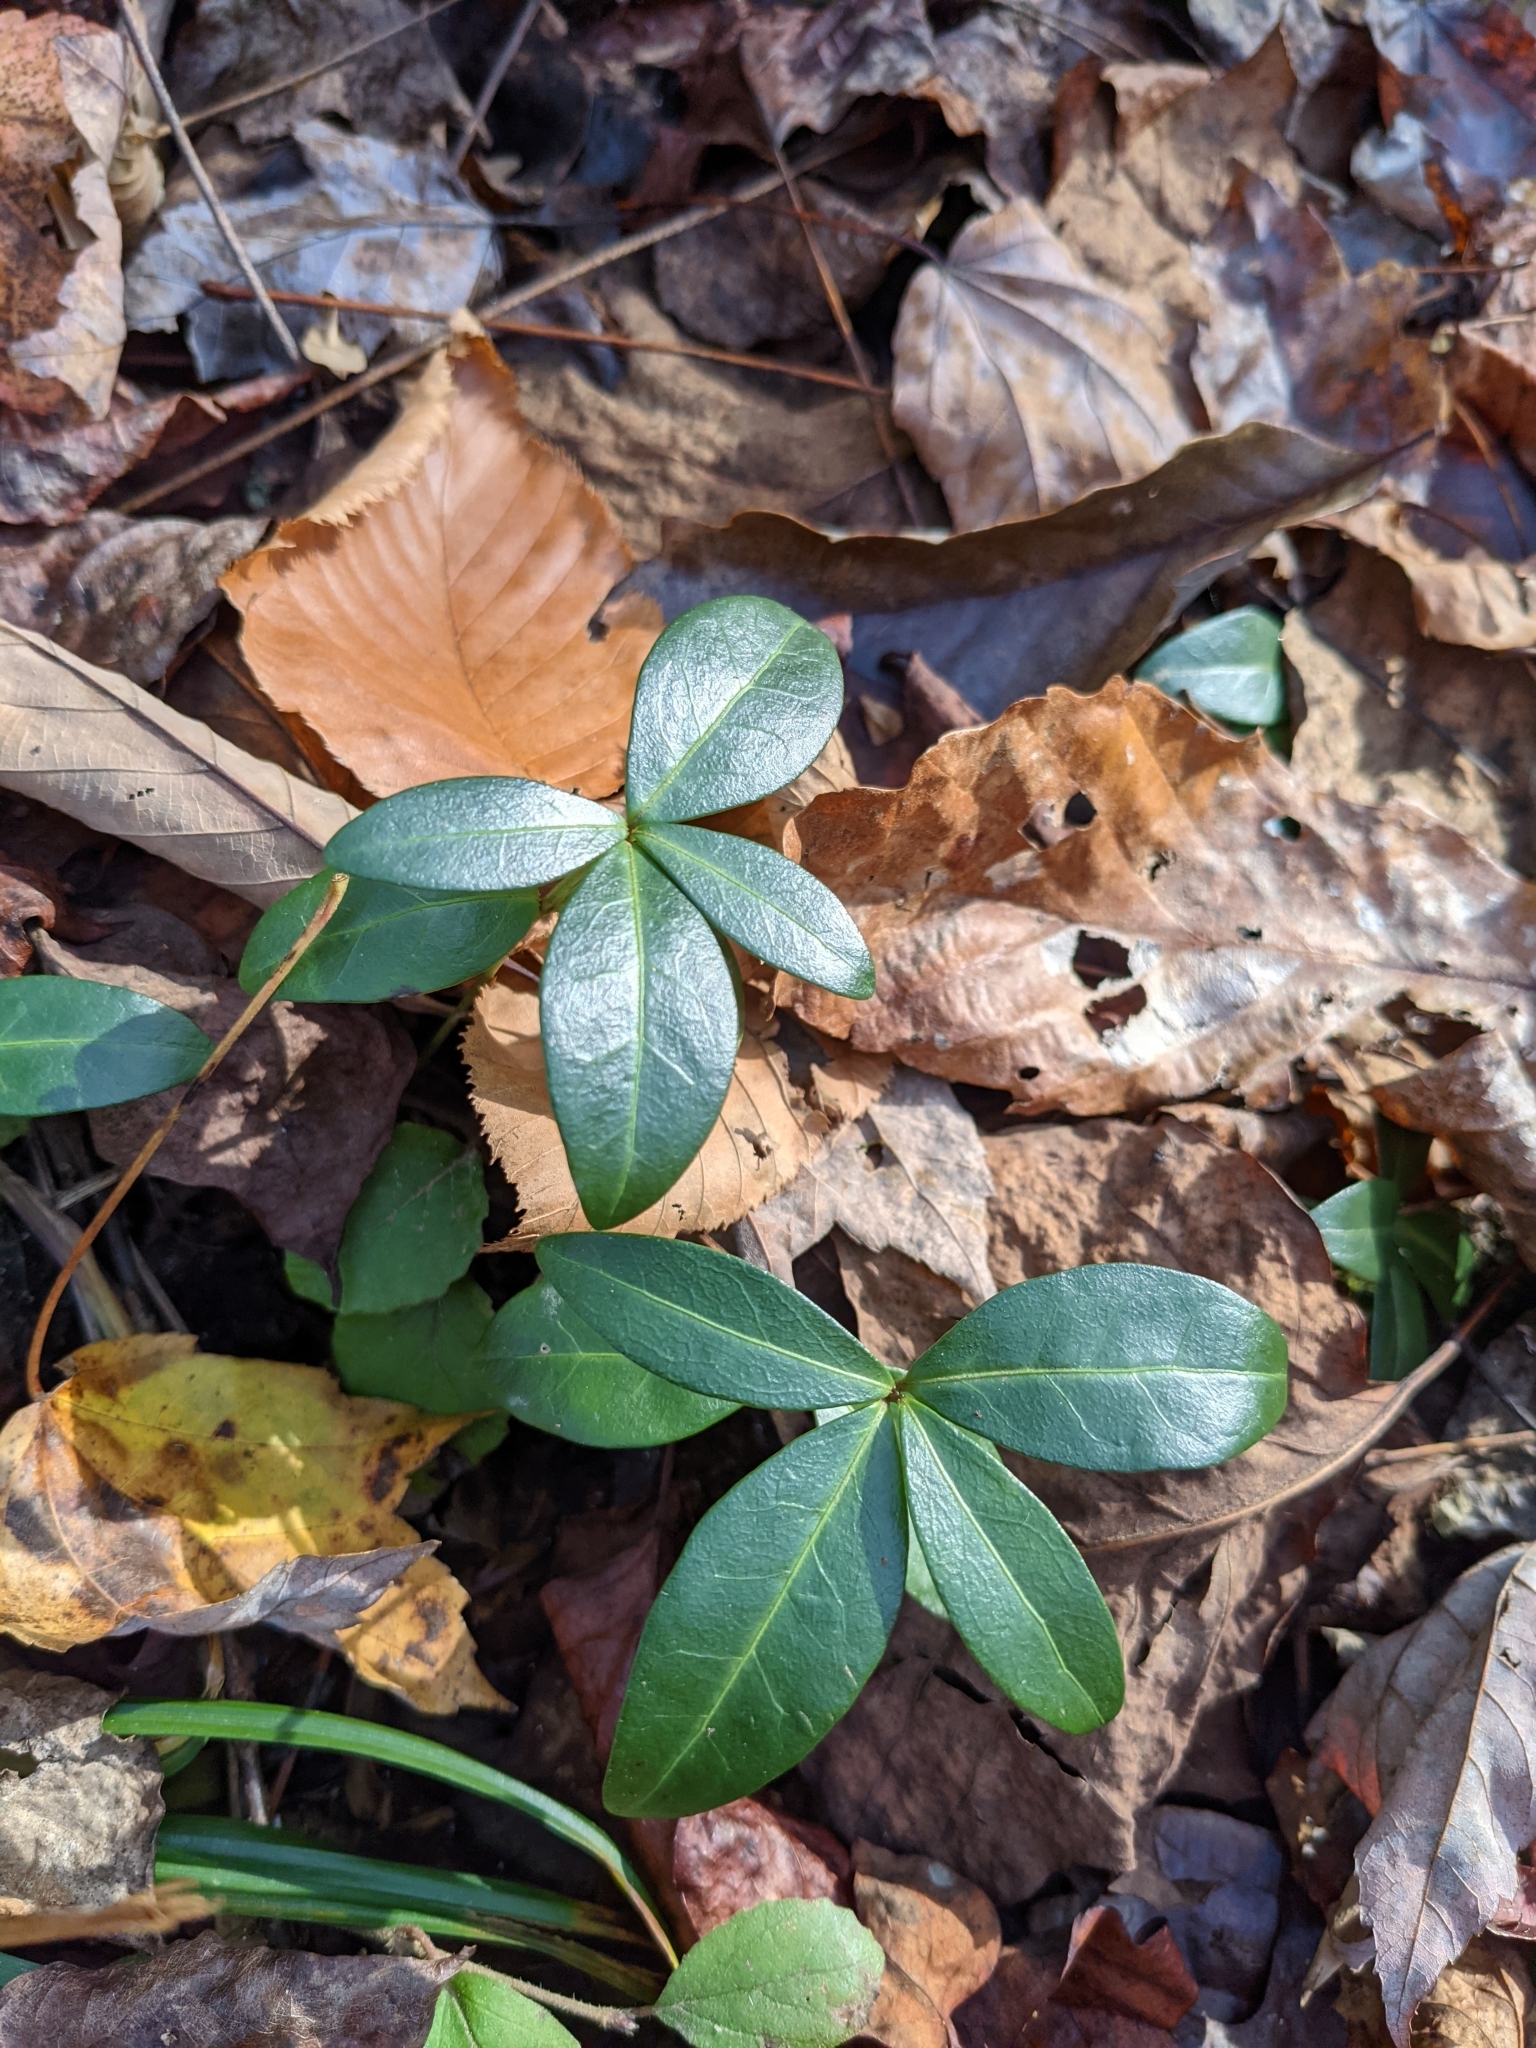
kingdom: Plantae
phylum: Tracheophyta
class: Magnoliopsida
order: Gentianales
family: Apocynaceae
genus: Vinca
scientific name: Vinca minor
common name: Lesser periwinkle
